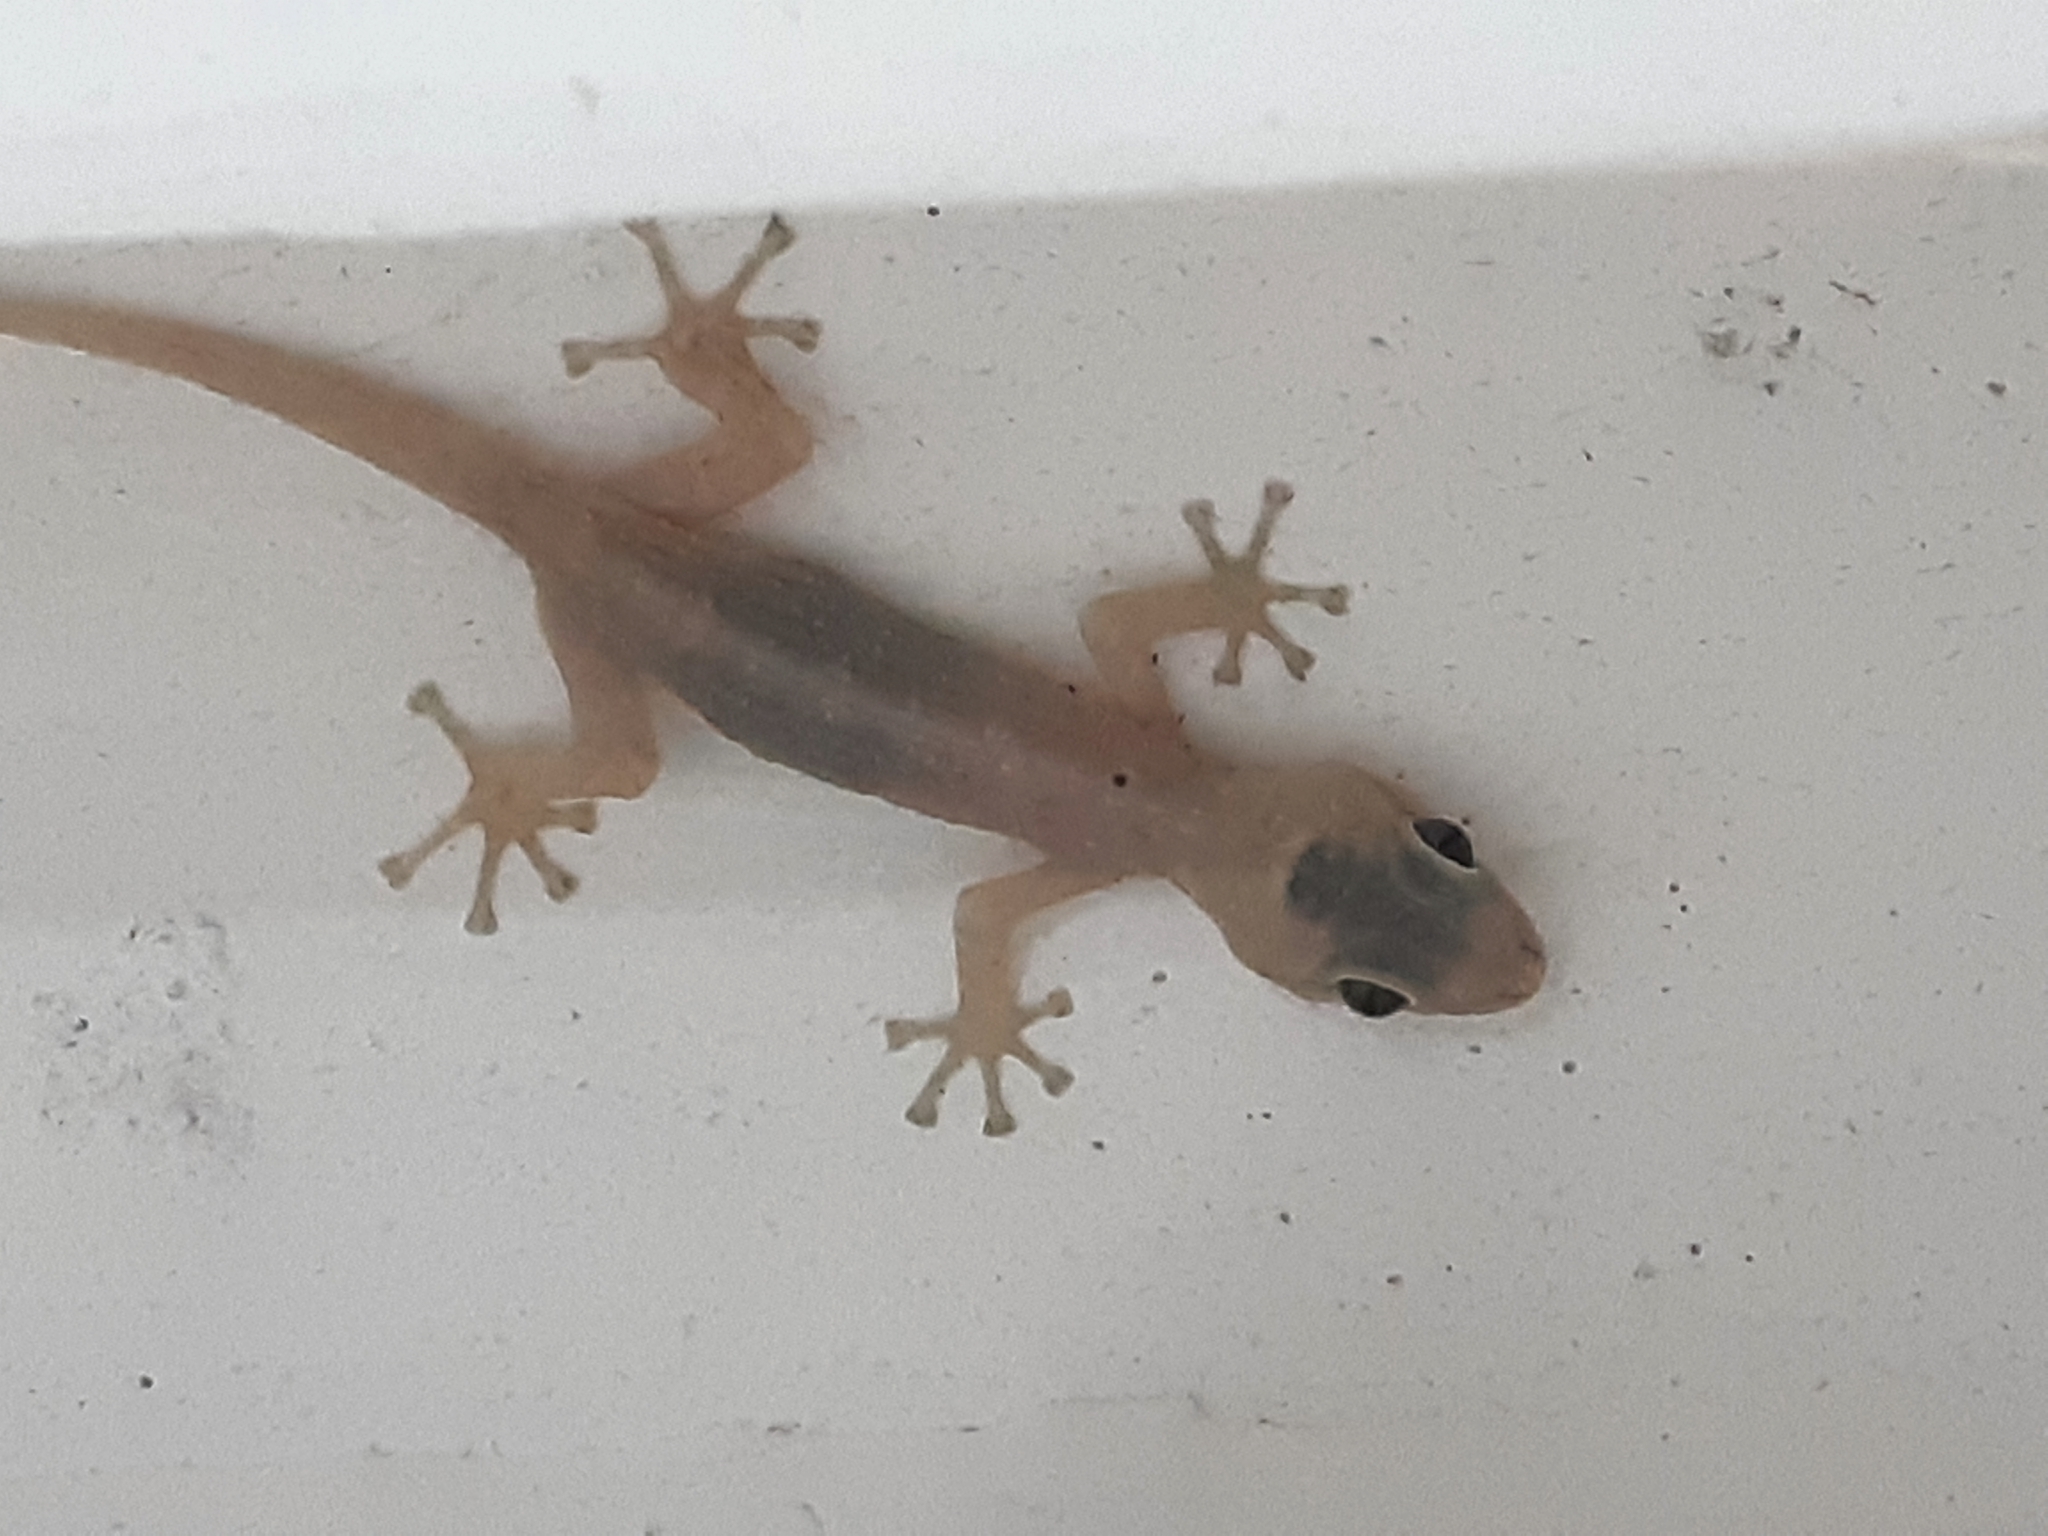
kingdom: Animalia
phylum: Chordata
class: Squamata
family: Phyllodactylidae
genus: Phyllodactylus
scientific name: Phyllodactylus reissii
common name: Peters' leaf-toed gecko
